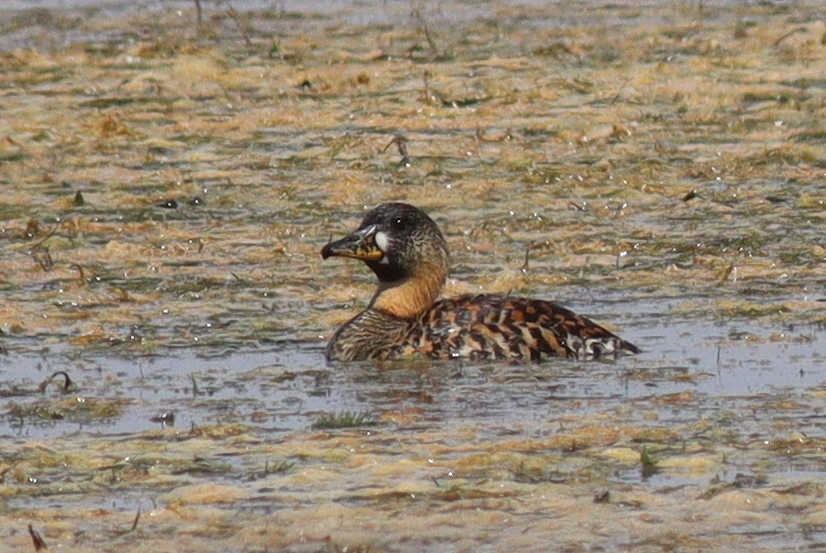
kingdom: Animalia
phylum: Chordata
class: Aves
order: Anseriformes
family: Anatidae
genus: Thalassornis
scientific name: Thalassornis leuconotus
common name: White-backed duck
